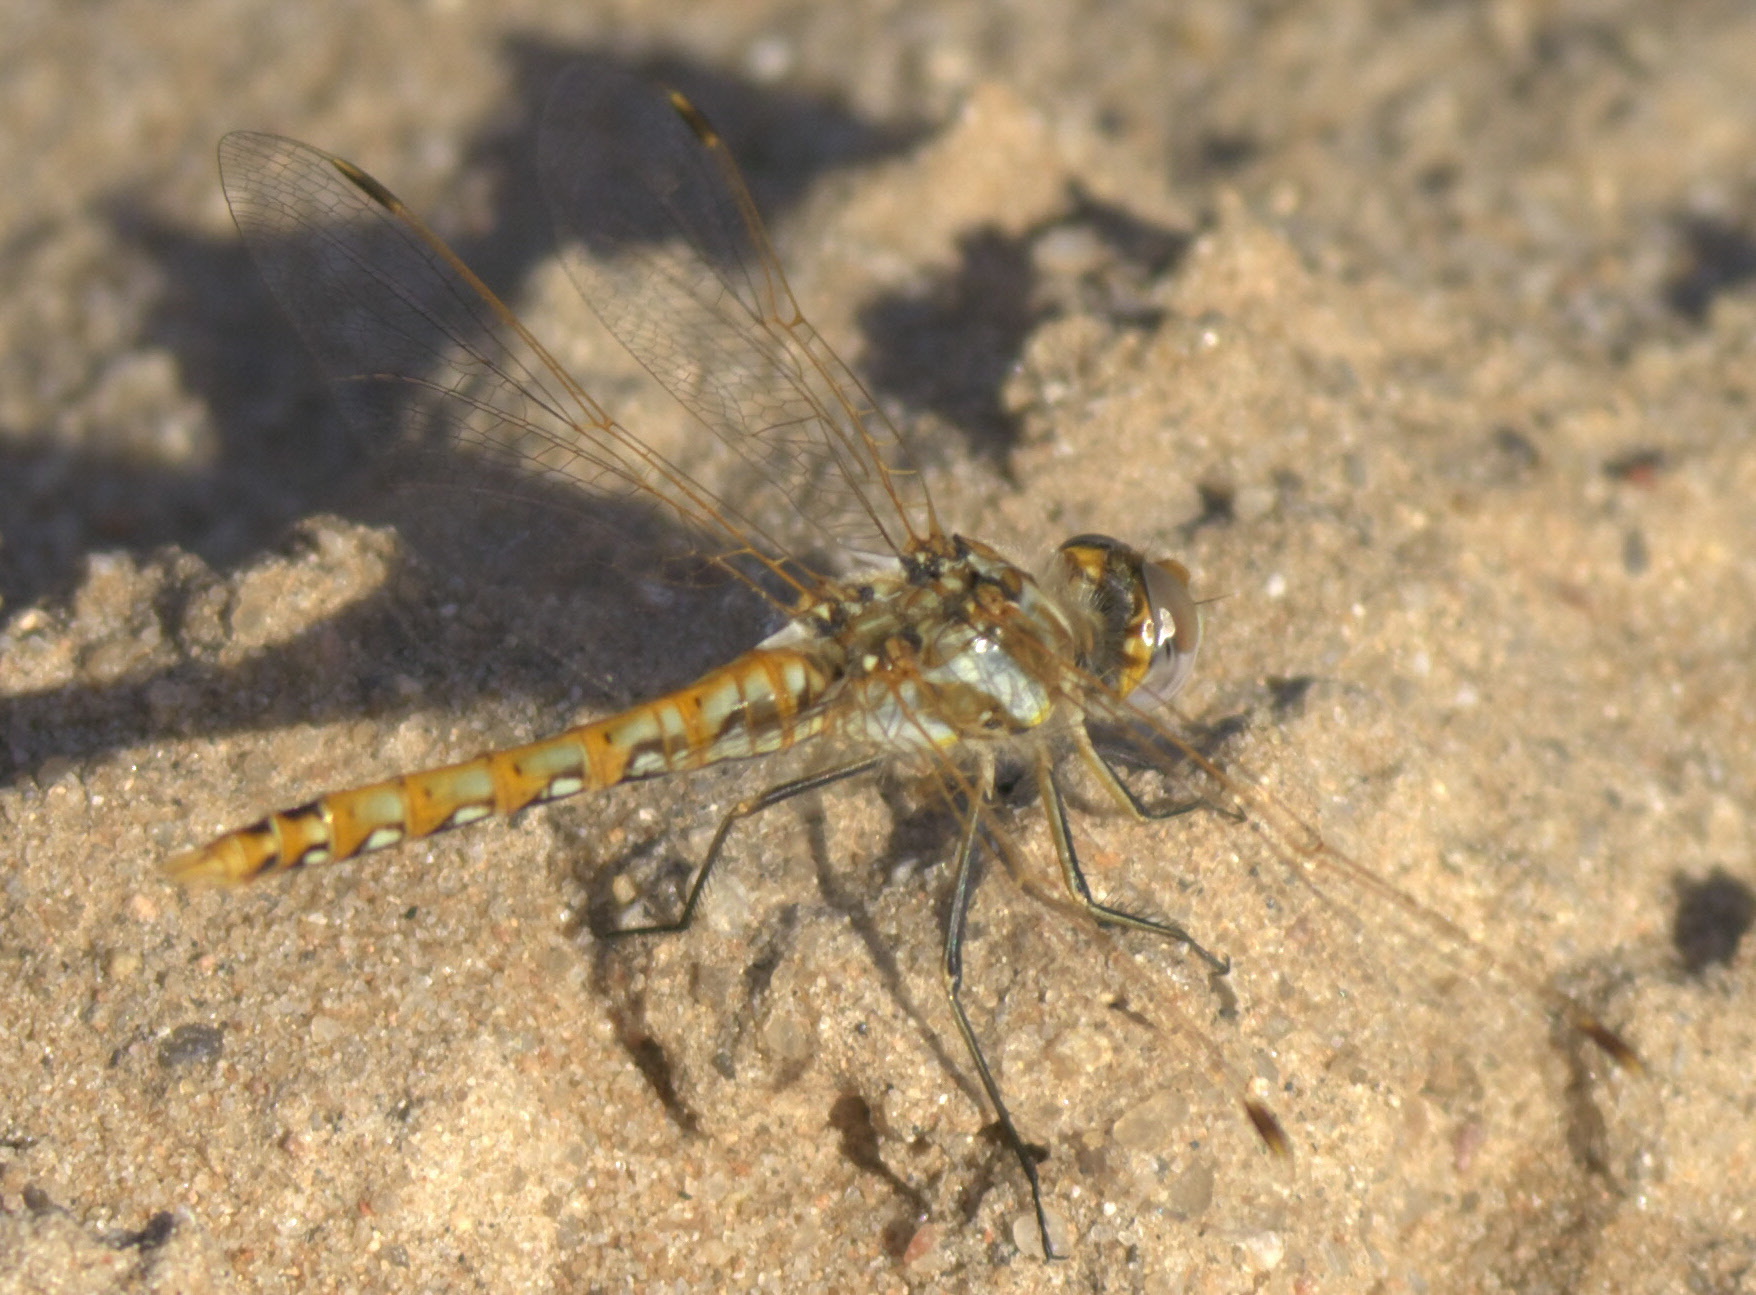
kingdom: Animalia
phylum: Arthropoda
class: Insecta
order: Odonata
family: Libellulidae
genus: Sympetrum
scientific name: Sympetrum corruptum
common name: Variegated meadowhawk
